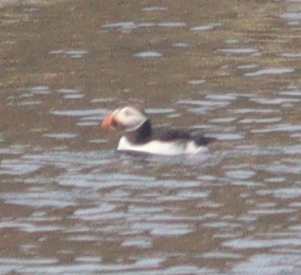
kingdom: Animalia
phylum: Chordata
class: Aves
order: Charadriiformes
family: Alcidae
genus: Fratercula
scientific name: Fratercula arctica
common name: Atlantic puffin
